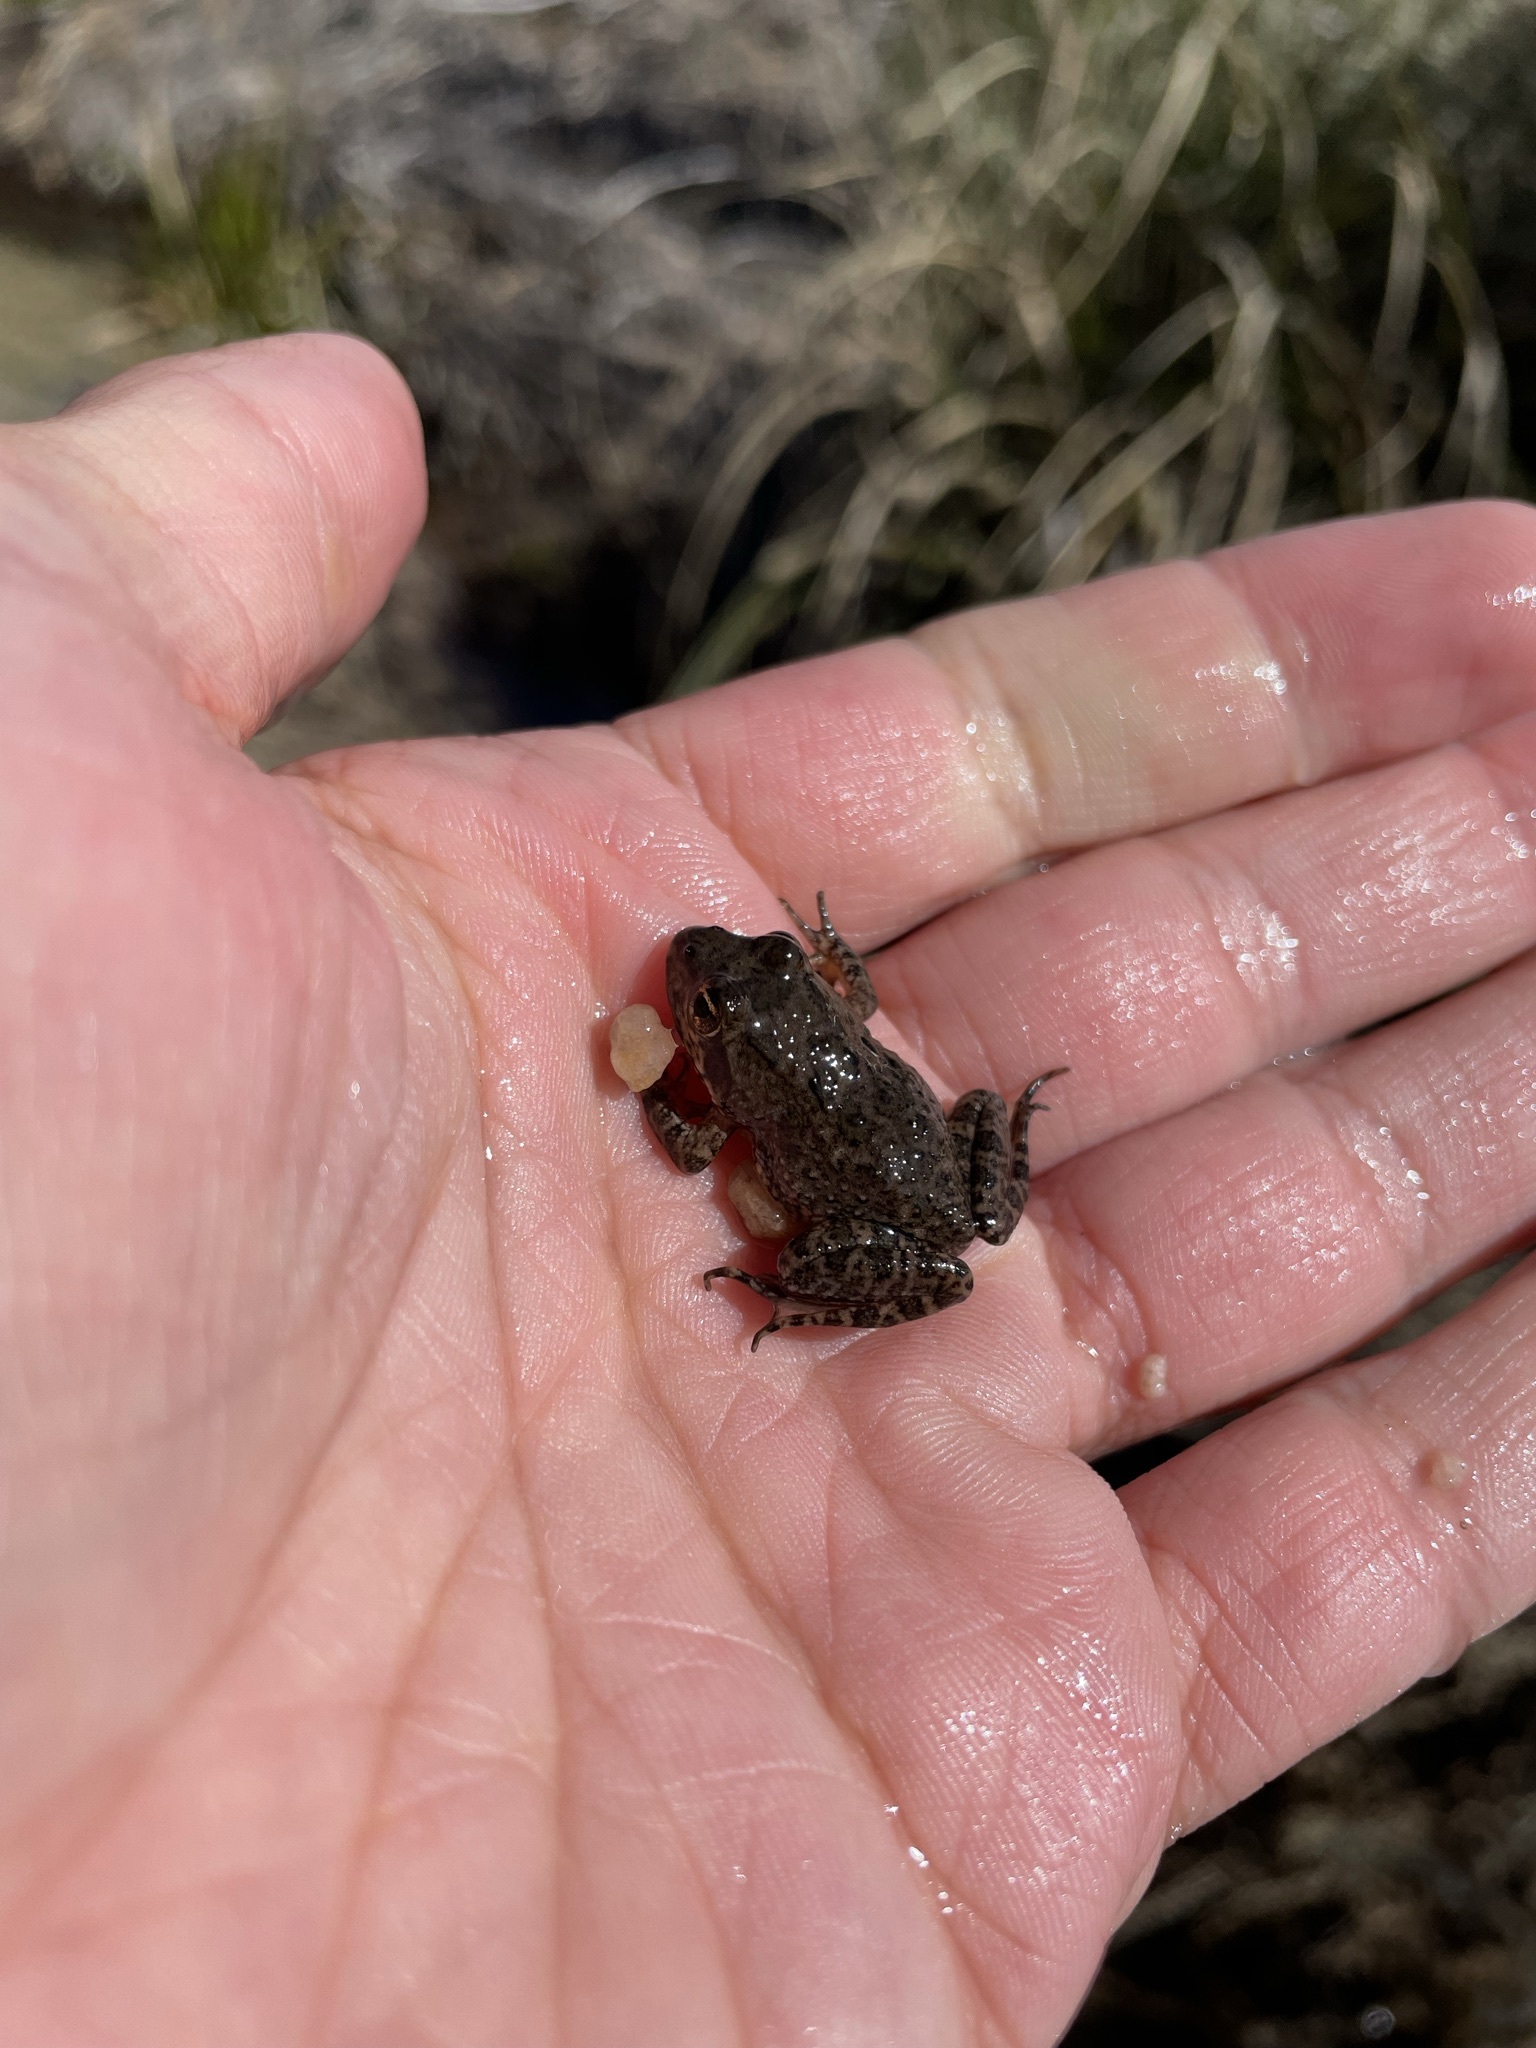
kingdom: Animalia
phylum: Chordata
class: Amphibia
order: Anura
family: Pyxicephalidae
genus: Amietia
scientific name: Amietia fuscigula
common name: Cape rana
